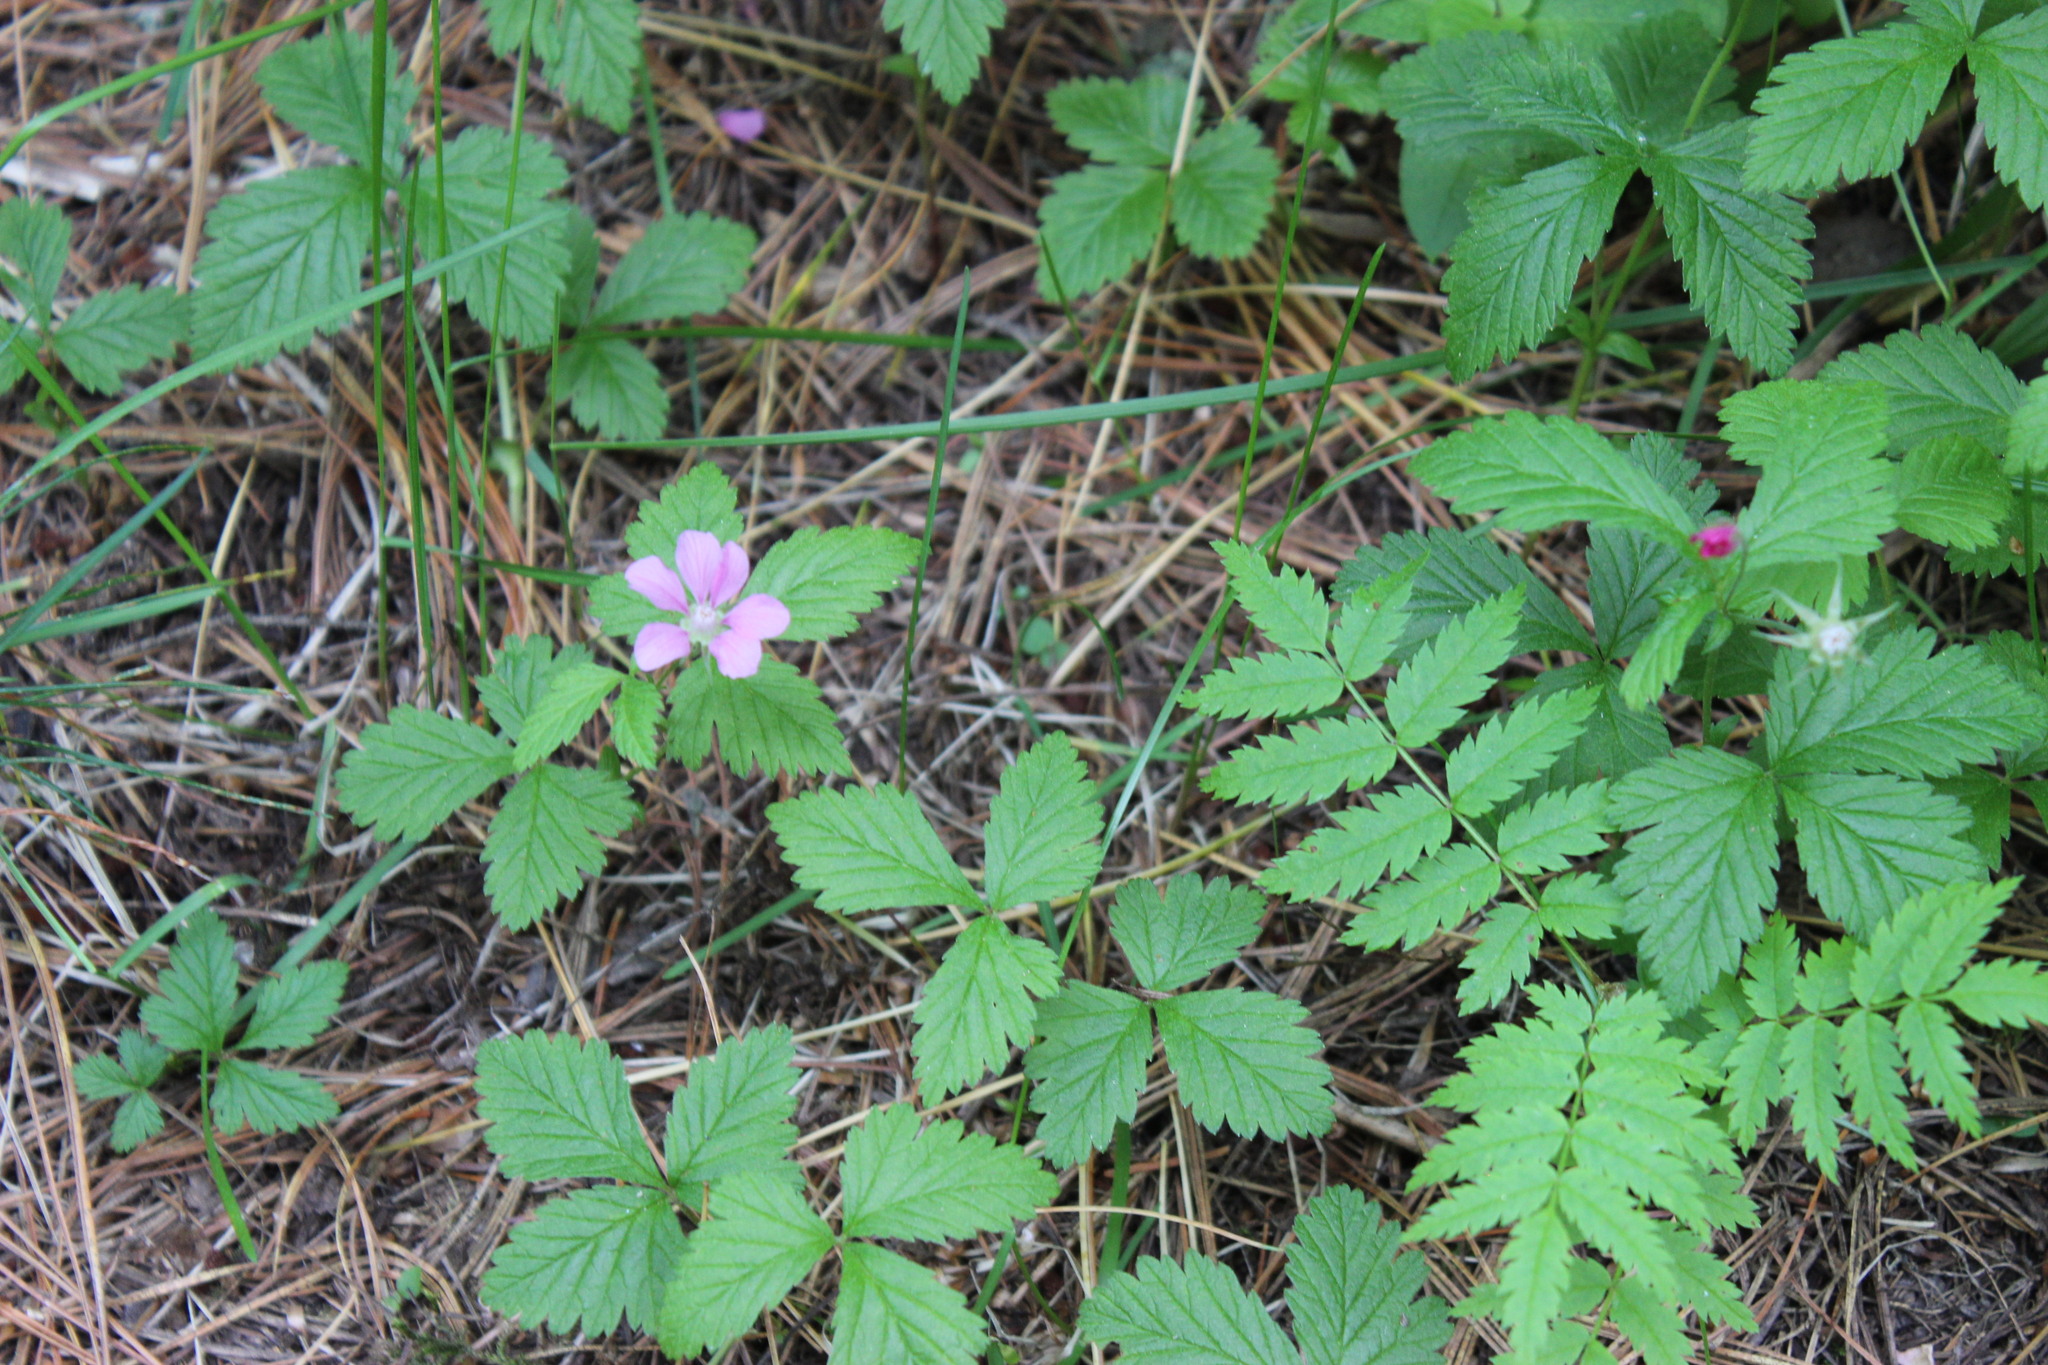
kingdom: Plantae
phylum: Tracheophyta
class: Magnoliopsida
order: Rosales
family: Rosaceae
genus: Rubus
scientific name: Rubus arcticus
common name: Arctic bramble
